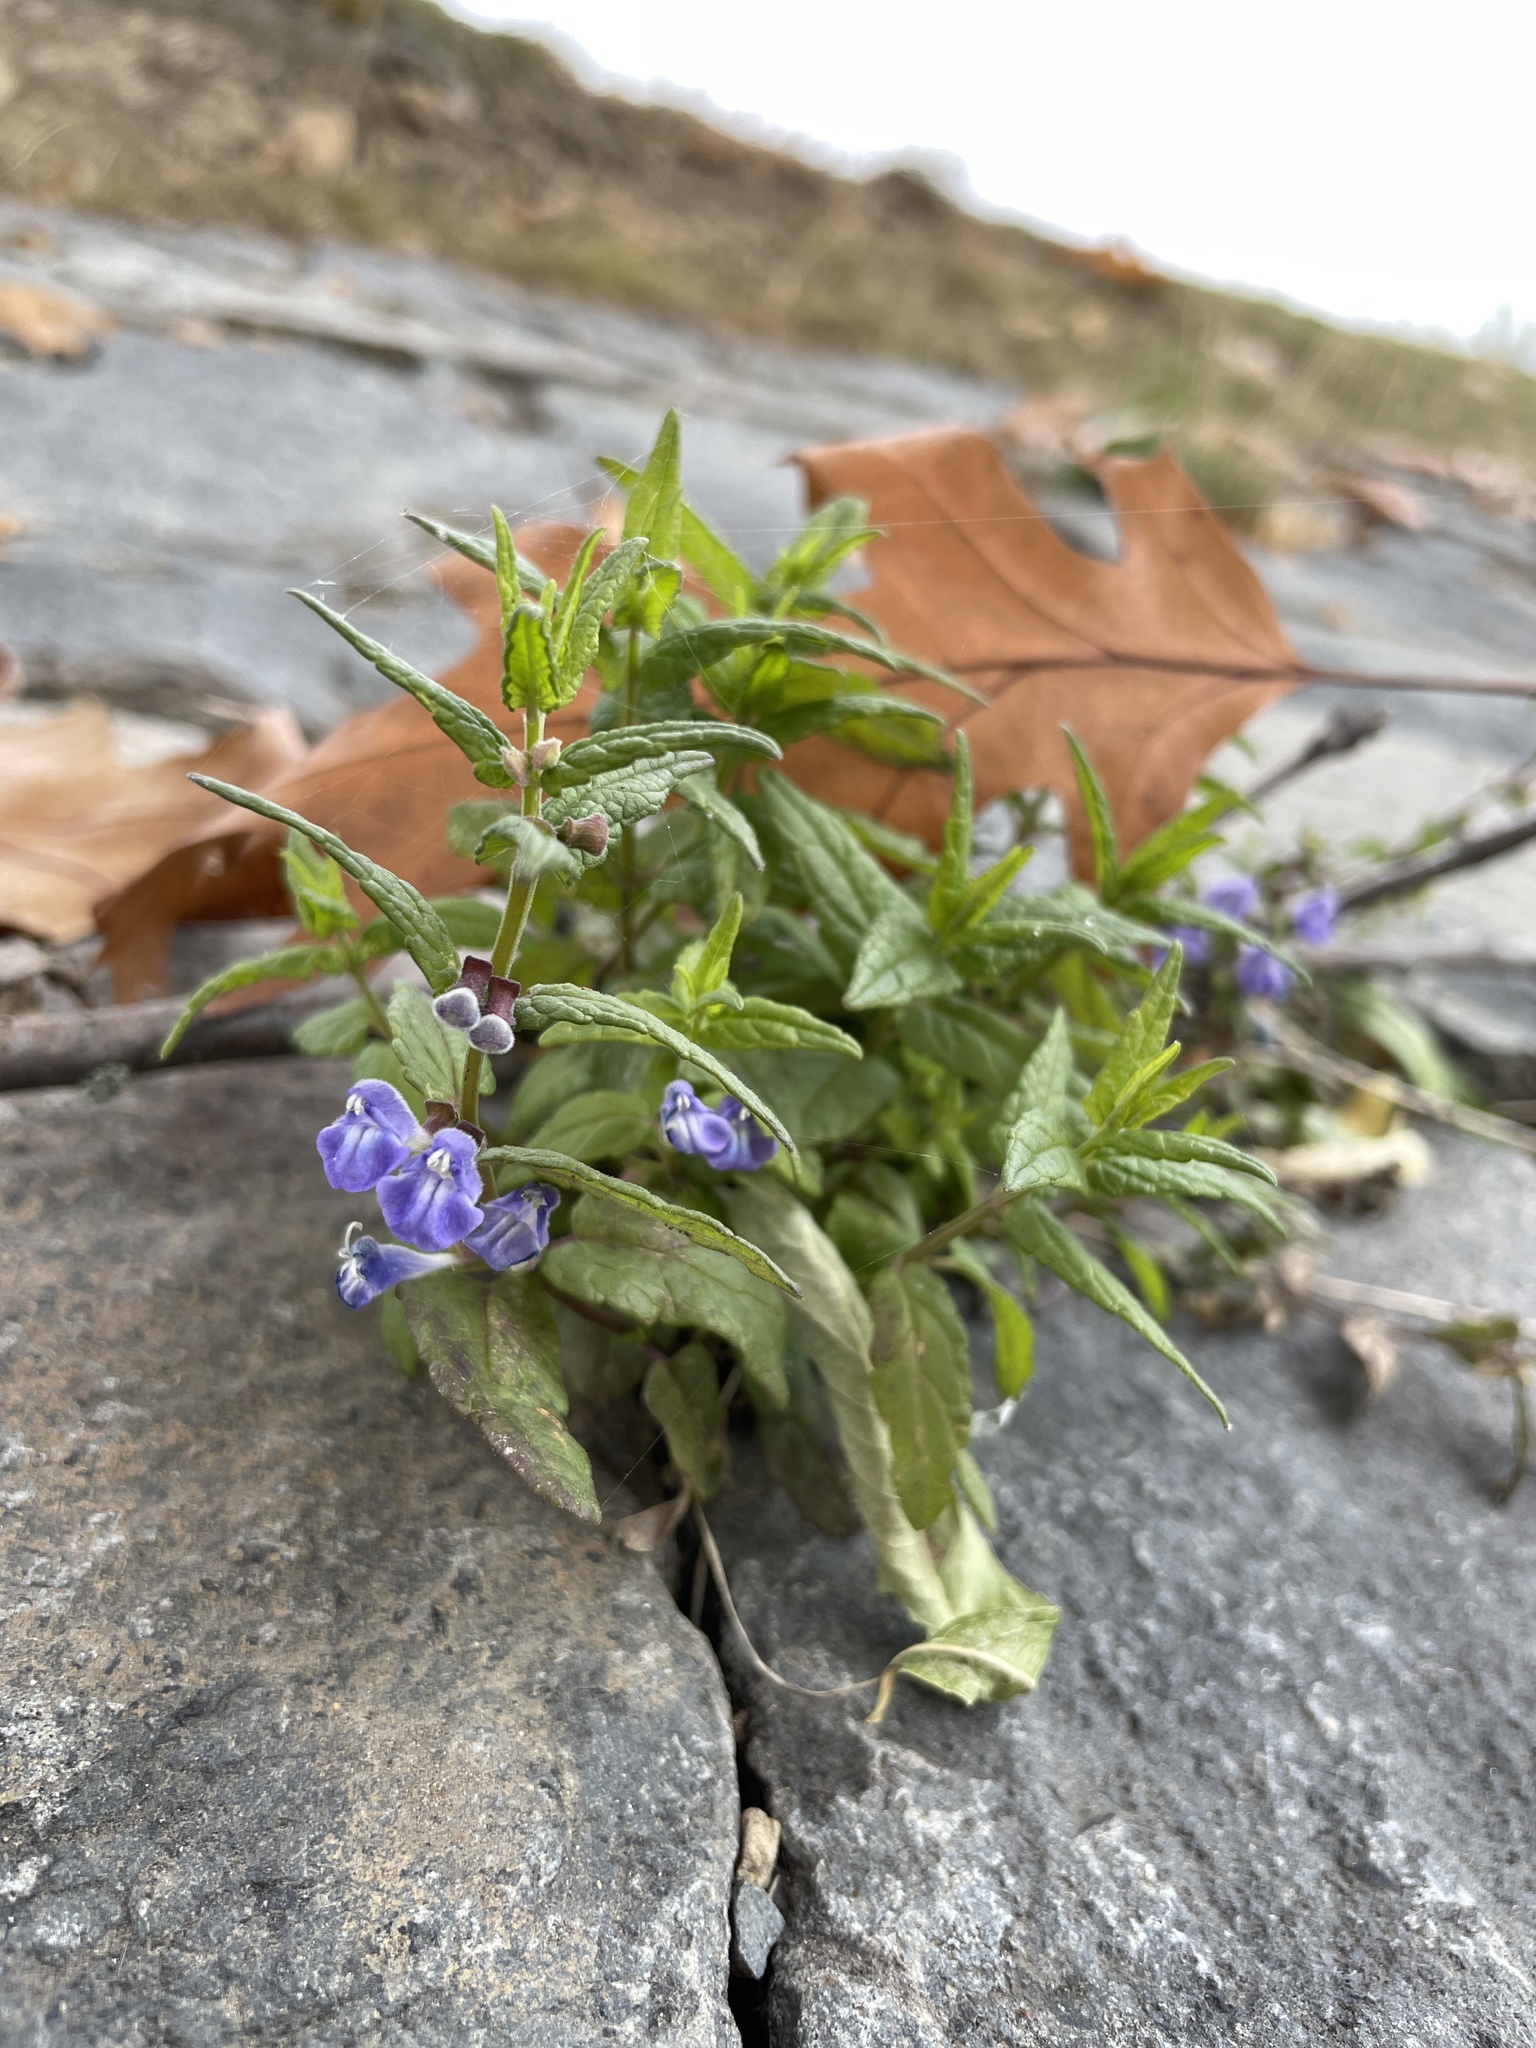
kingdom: Plantae
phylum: Tracheophyta
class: Magnoliopsida
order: Lamiales
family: Lamiaceae
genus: Scutellaria
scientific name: Scutellaria galericulata
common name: Skullcap
